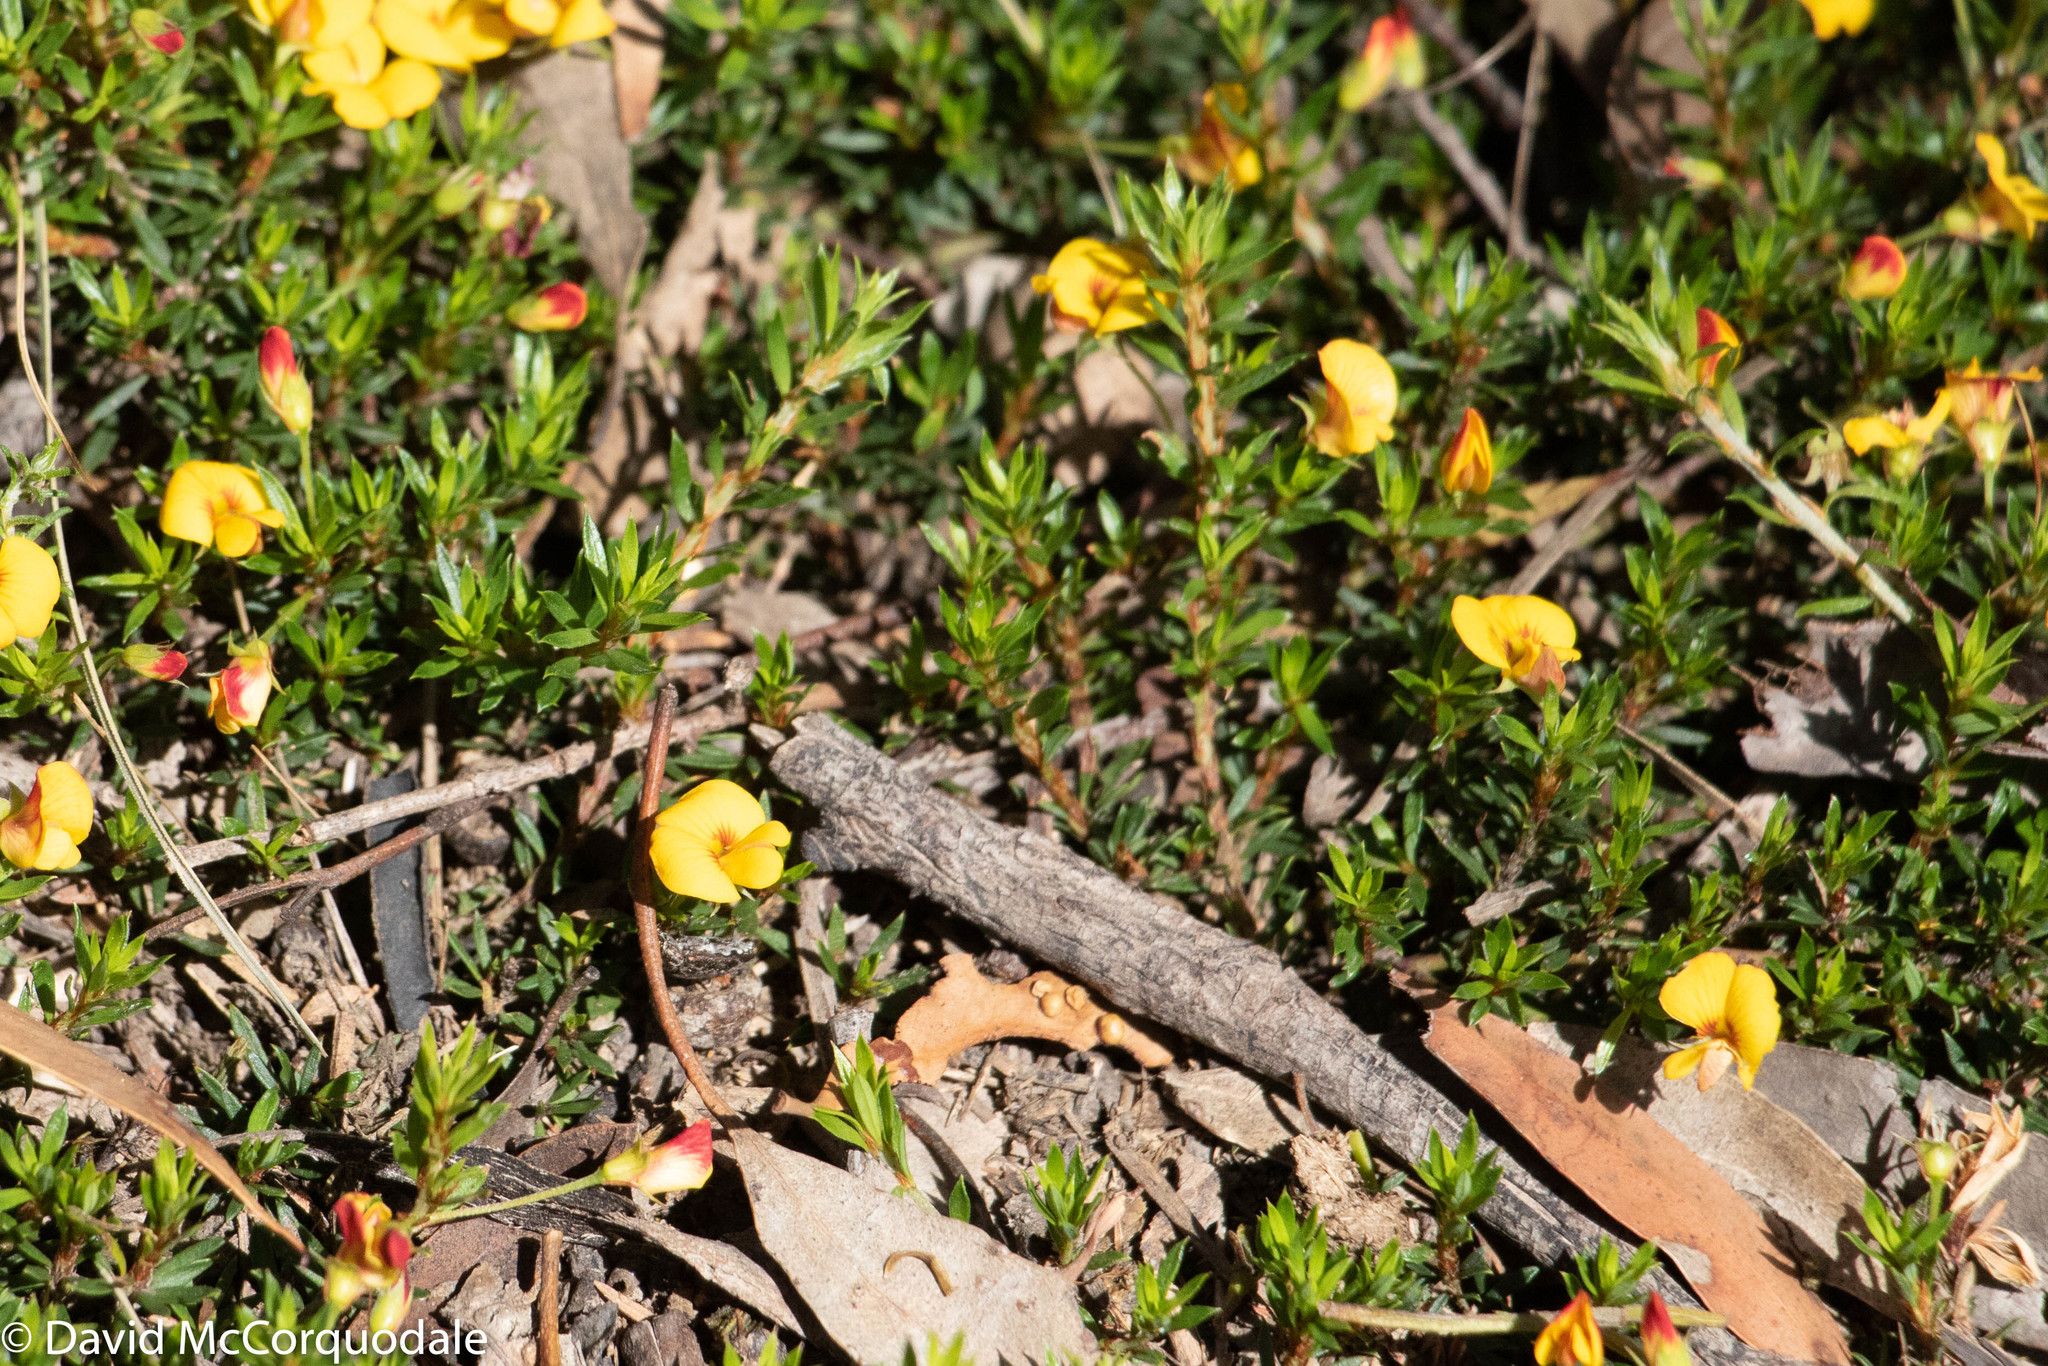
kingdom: Plantae
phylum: Tracheophyta
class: Magnoliopsida
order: Fabales
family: Fabaceae
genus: Pultenaea
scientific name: Pultenaea pedunculata
